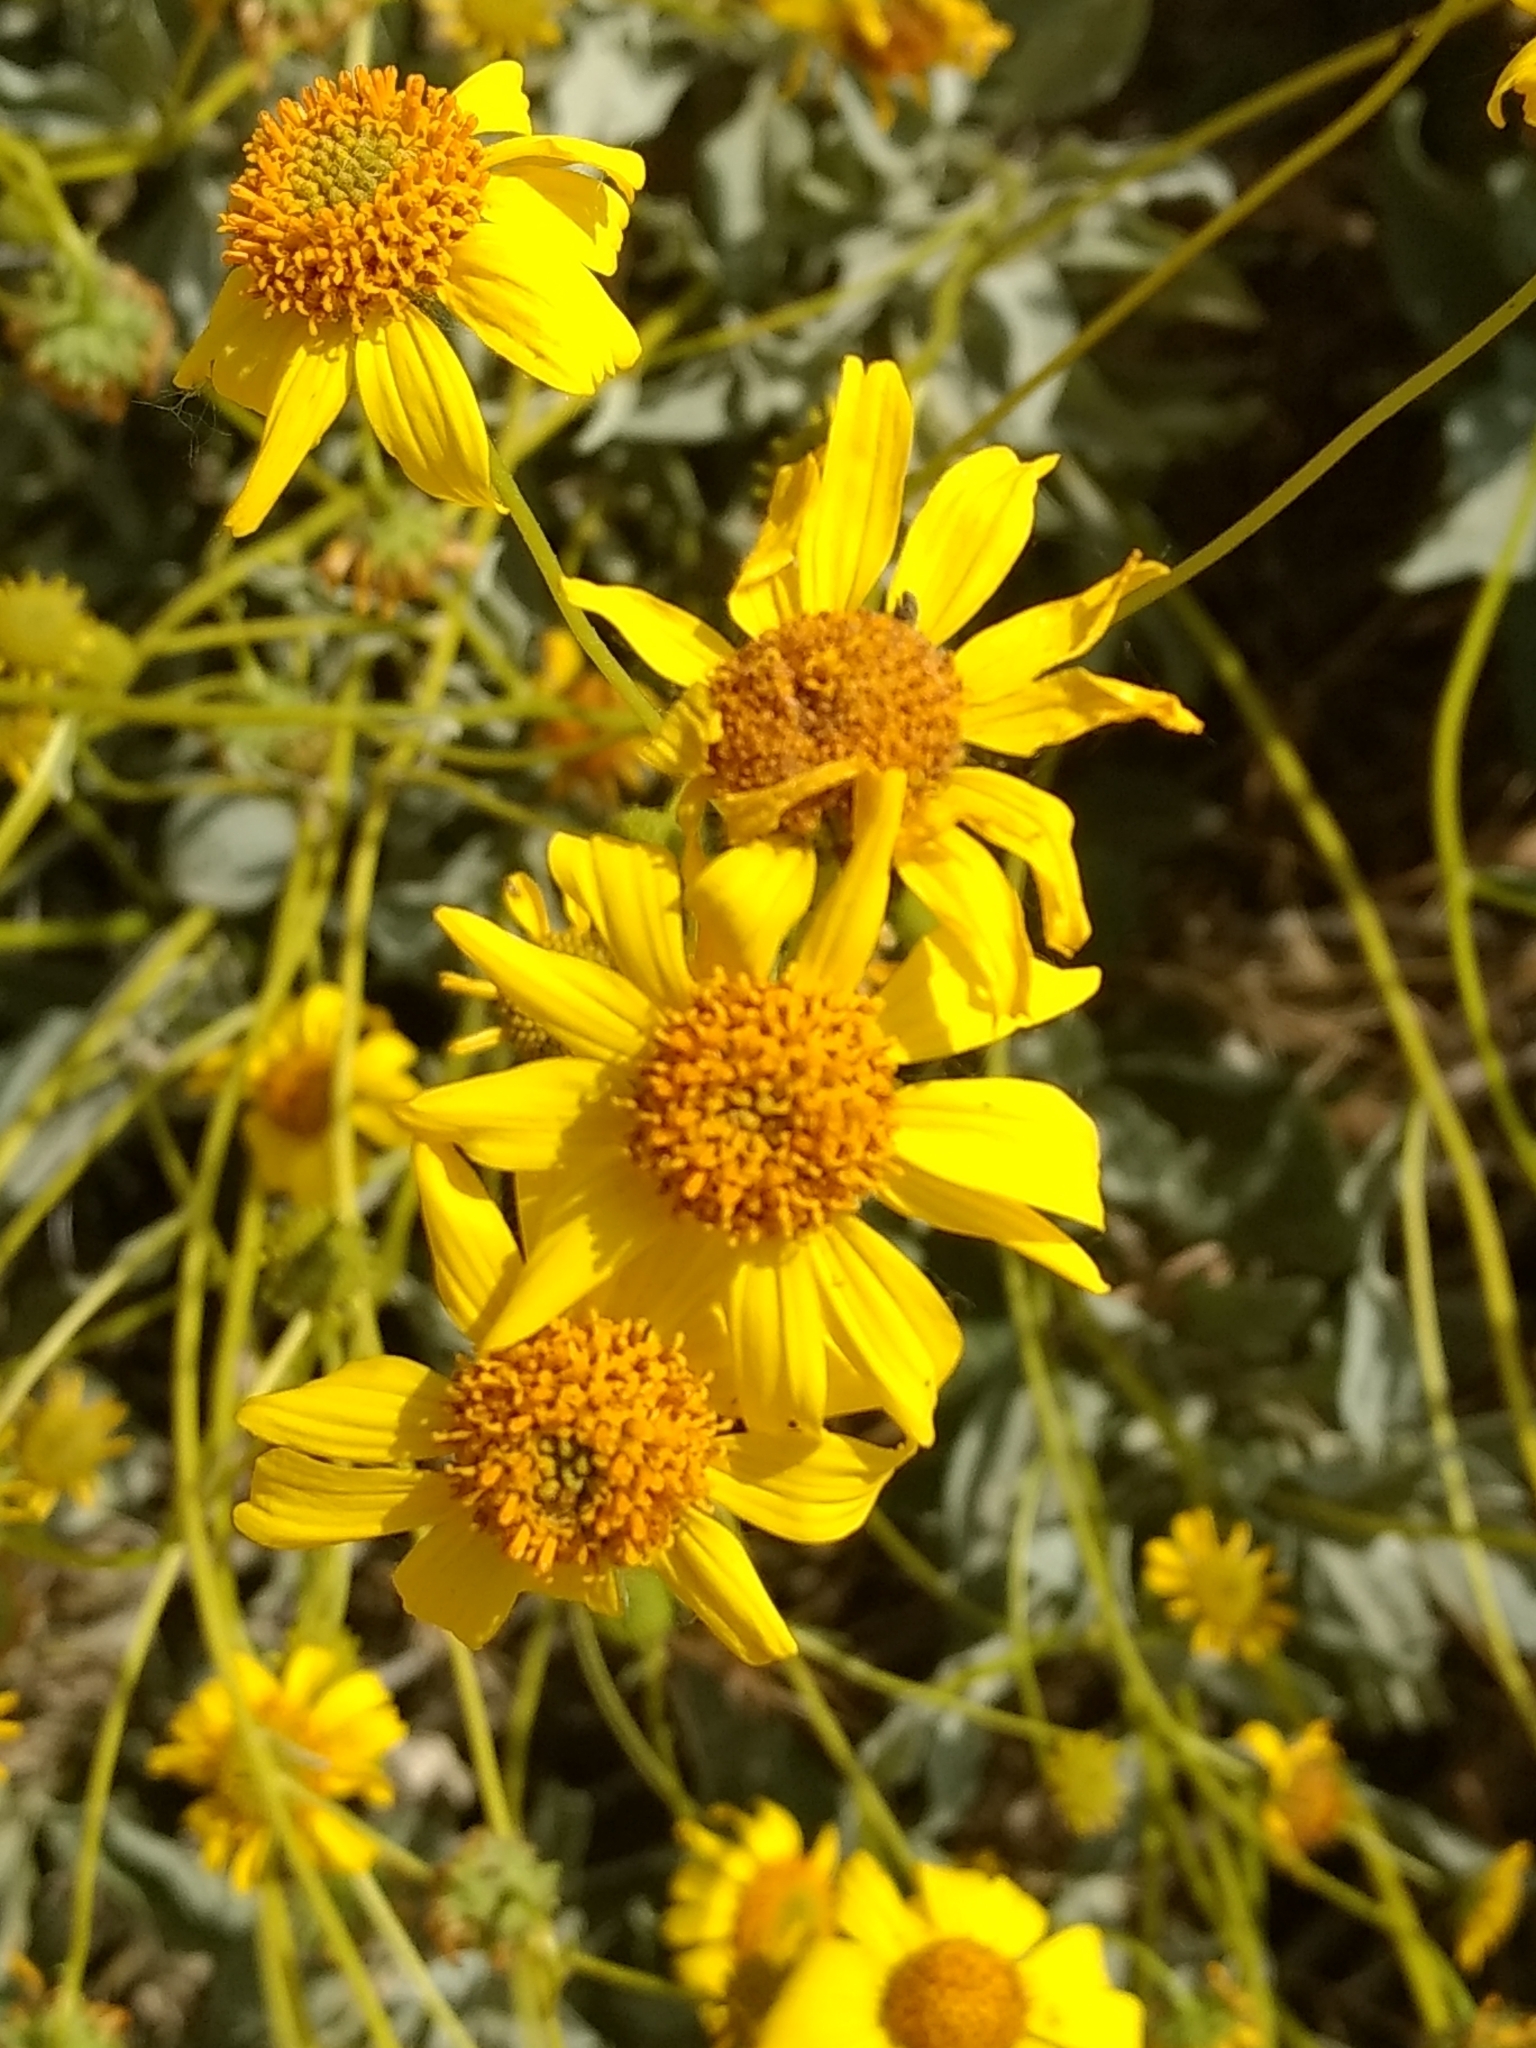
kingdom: Plantae
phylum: Tracheophyta
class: Magnoliopsida
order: Asterales
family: Asteraceae
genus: Encelia
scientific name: Encelia farinosa
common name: Brittlebush
